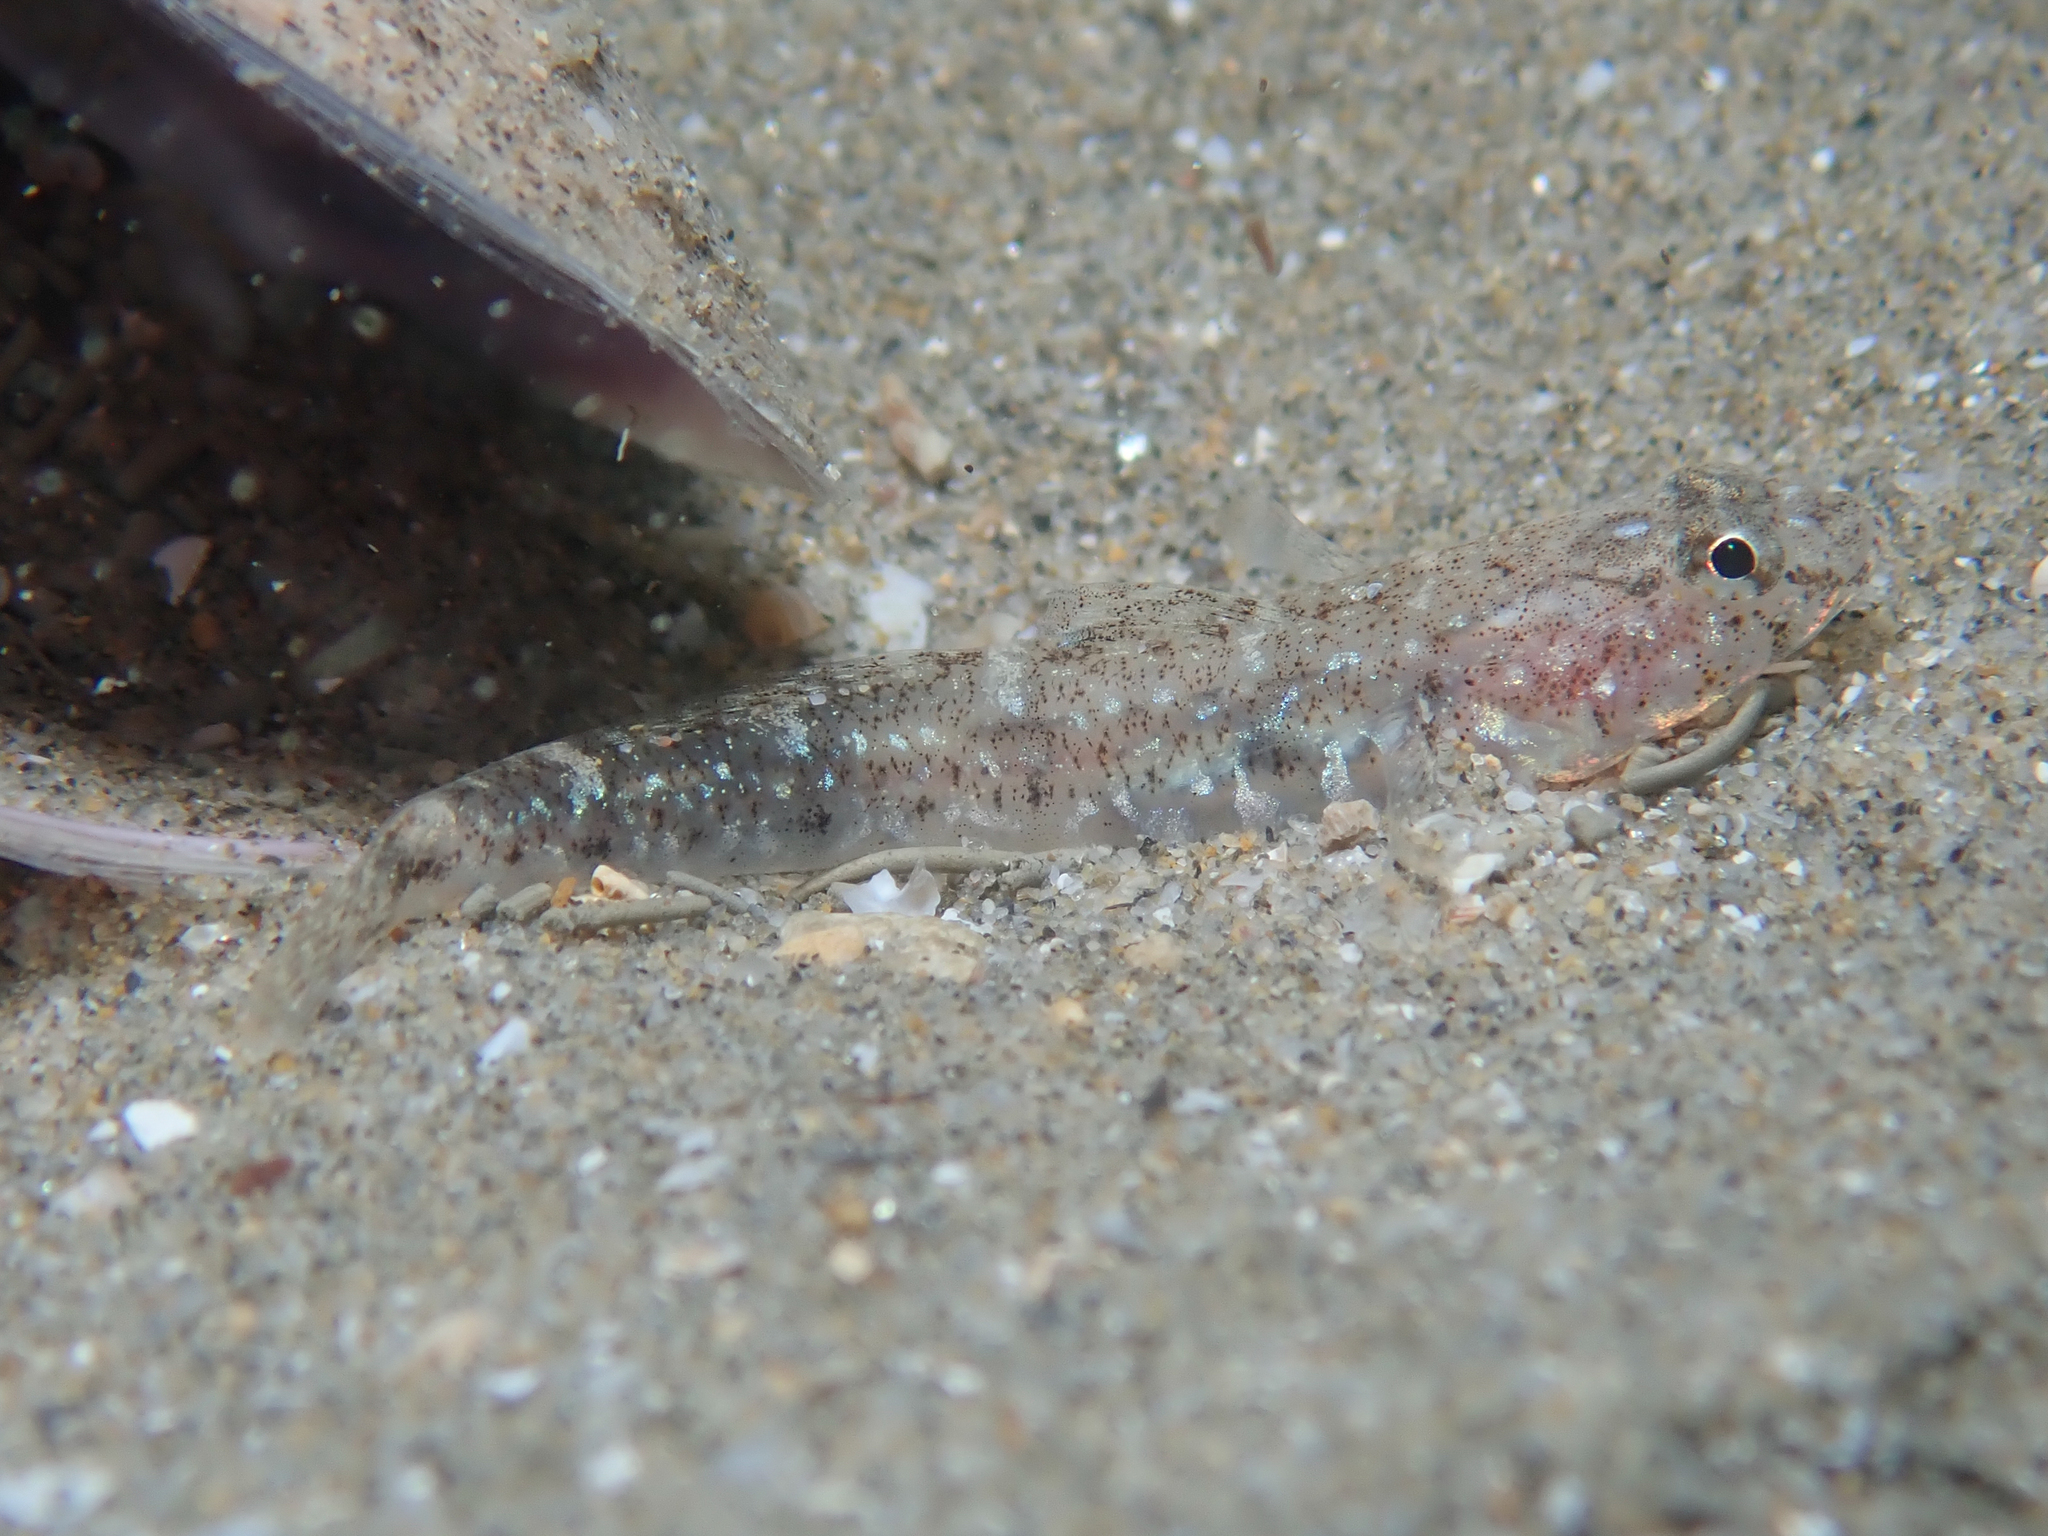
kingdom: Animalia
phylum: Chordata
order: Perciformes
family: Gobiidae
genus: Pomatoschistus
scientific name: Pomatoschistus marmoratus
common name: Marbled goby
